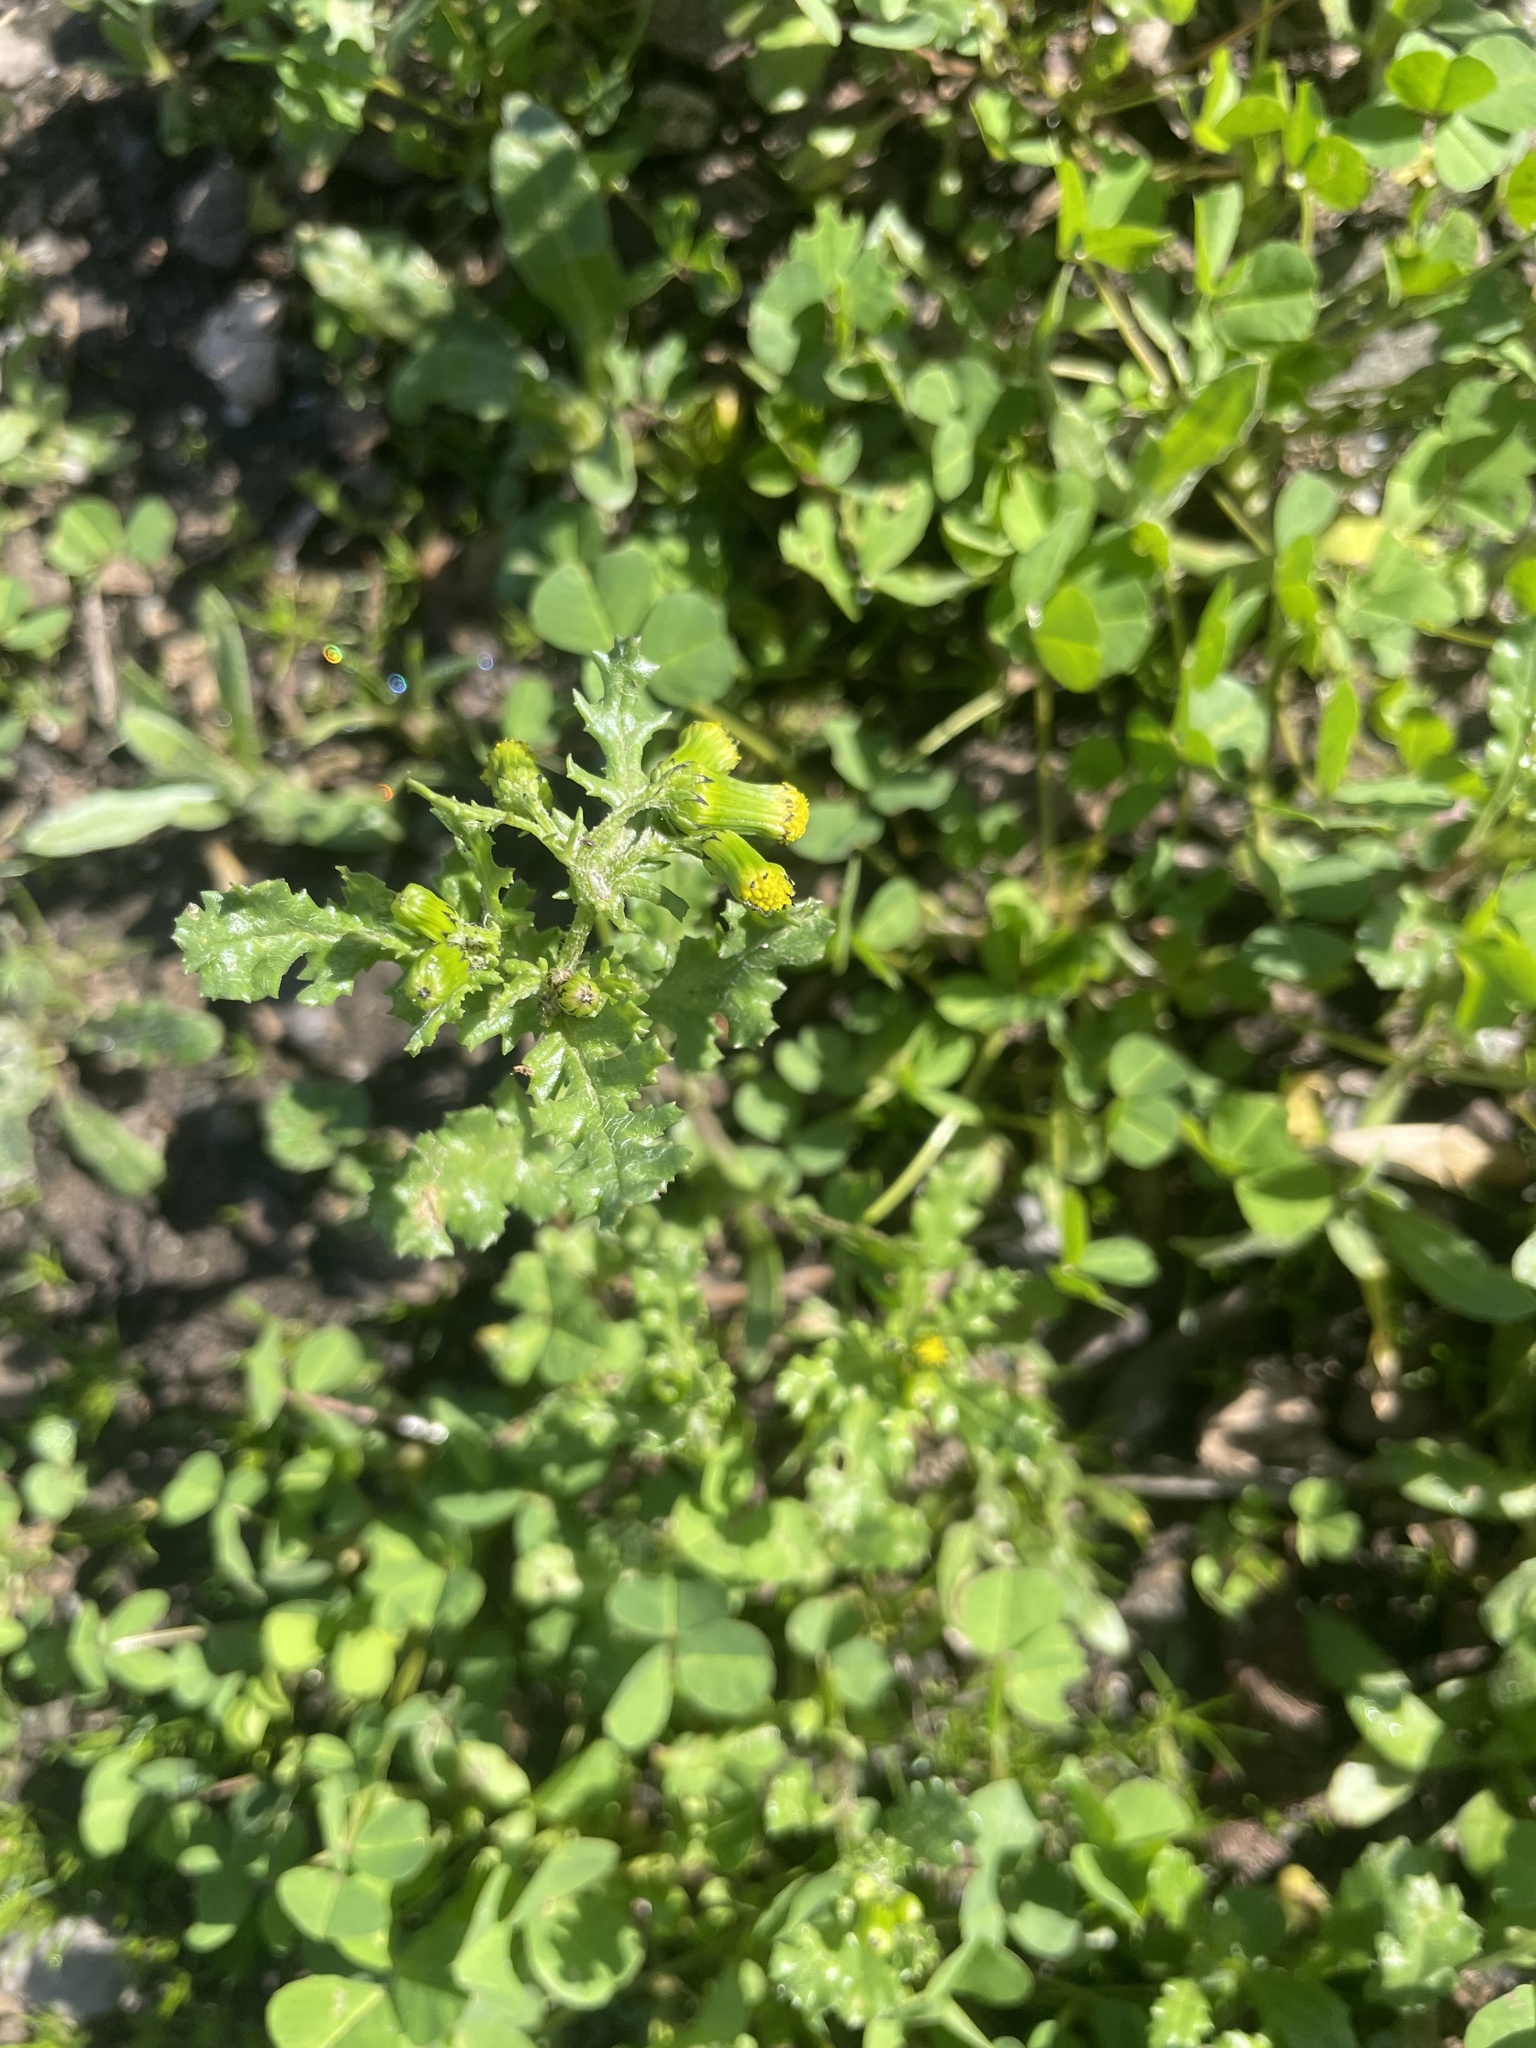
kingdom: Plantae
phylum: Tracheophyta
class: Magnoliopsida
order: Asterales
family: Asteraceae
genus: Senecio
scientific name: Senecio vulgaris
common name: Old-man-in-the-spring
